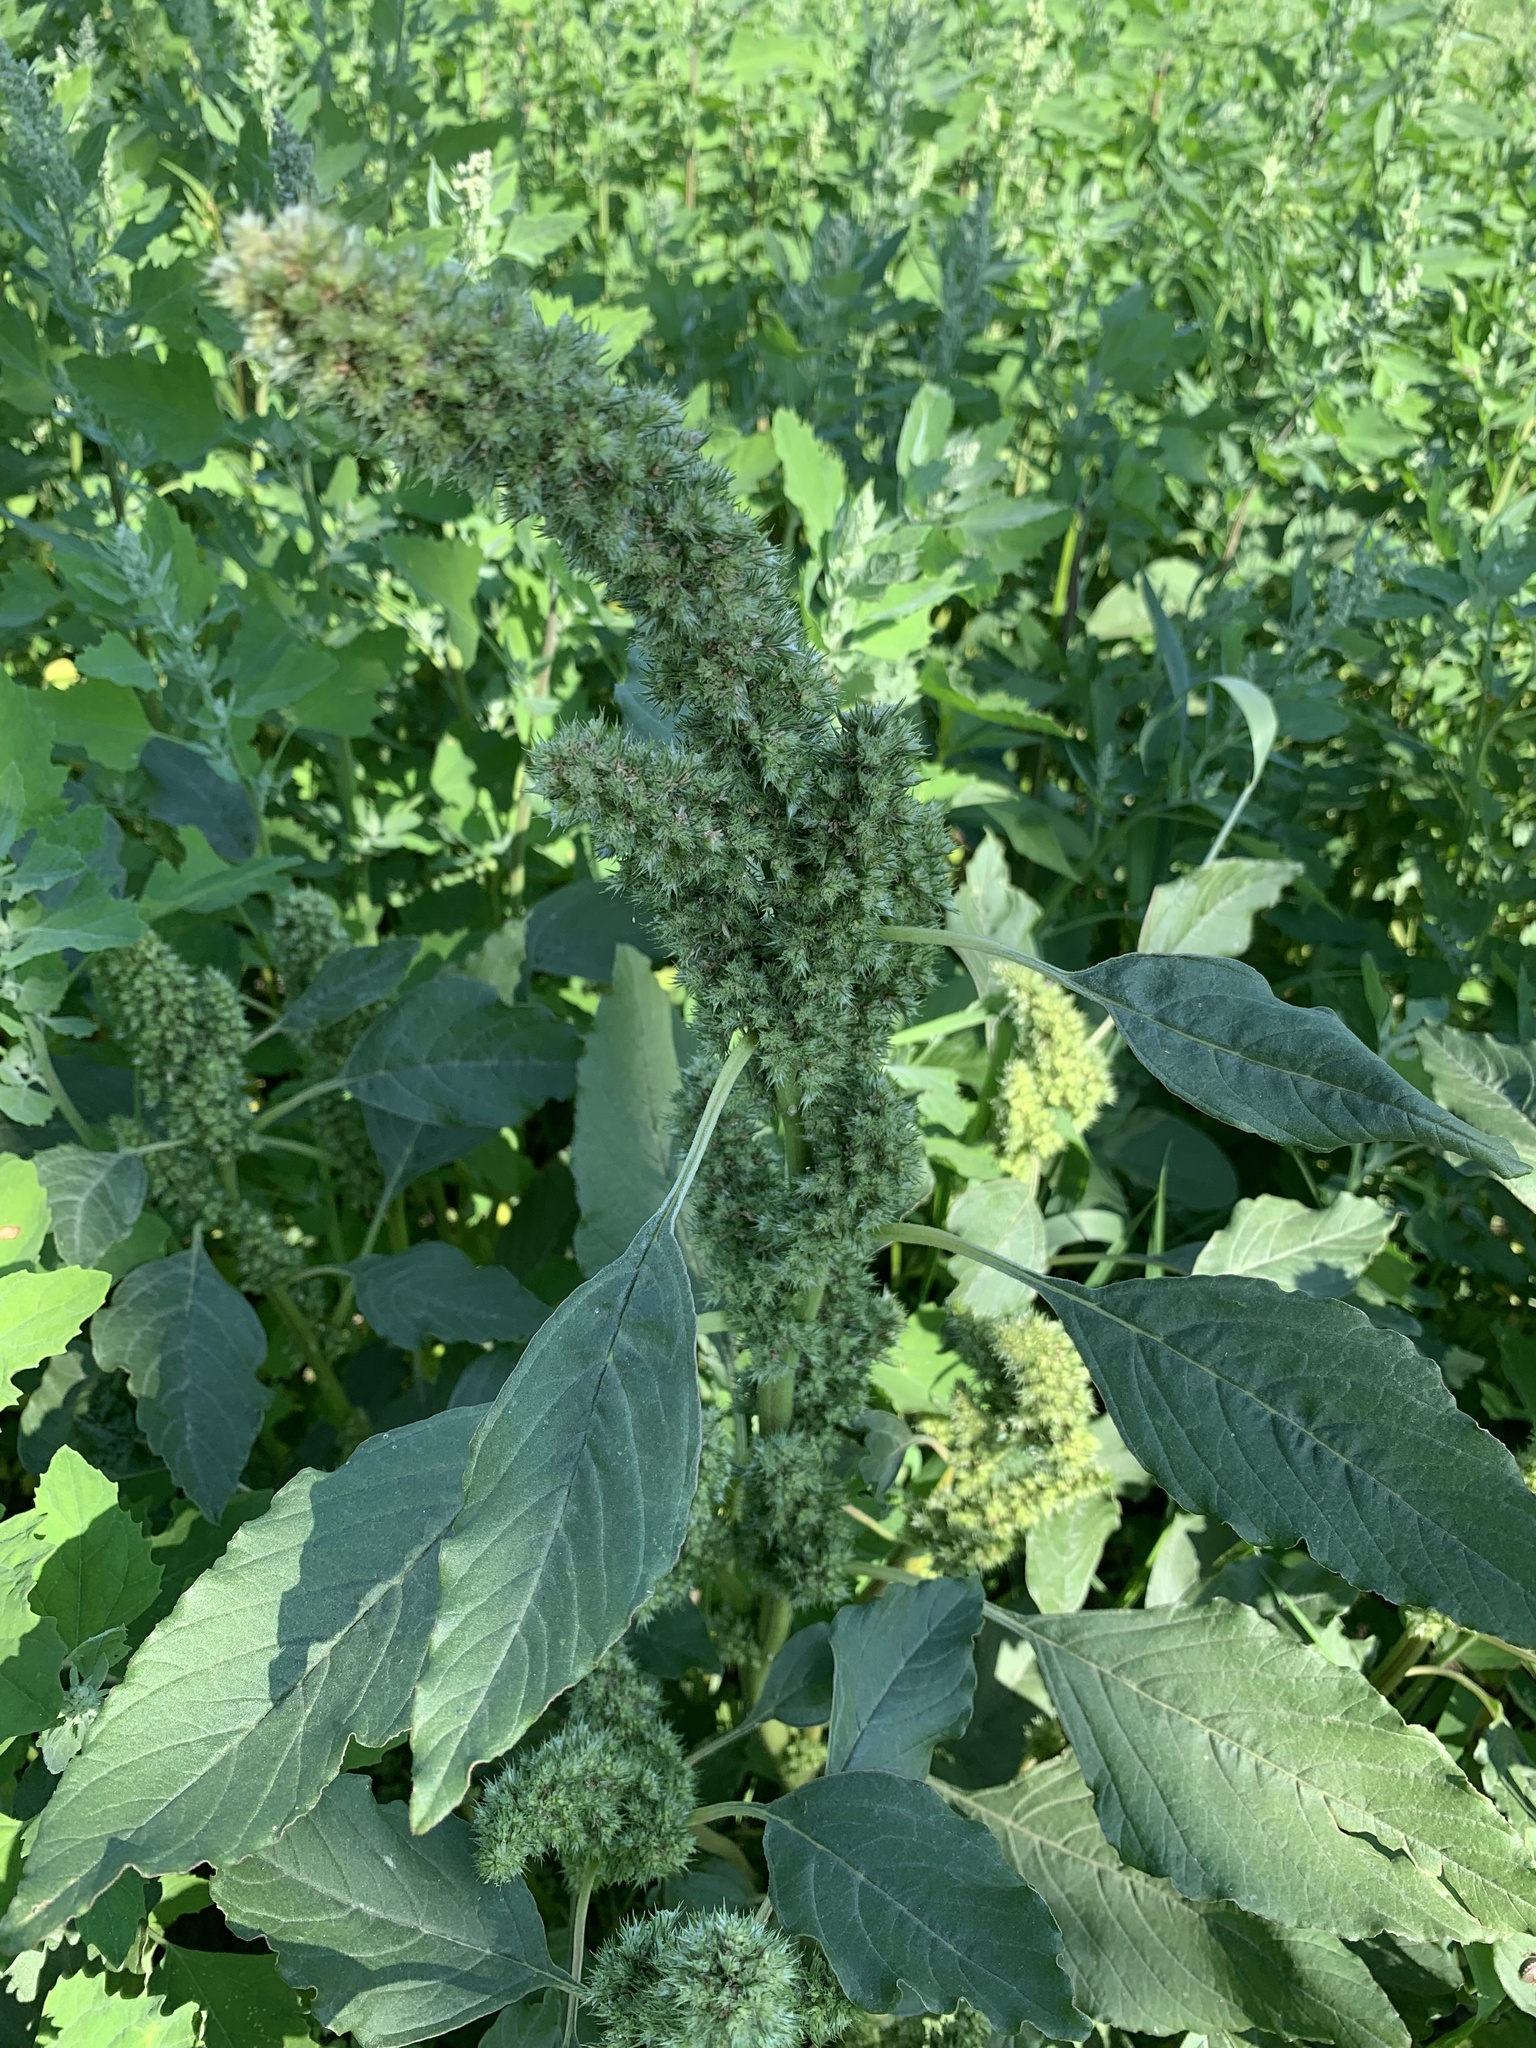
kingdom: Plantae
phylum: Tracheophyta
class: Magnoliopsida
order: Caryophyllales
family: Amaranthaceae
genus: Amaranthus
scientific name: Amaranthus retroflexus
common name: Redroot amaranth
